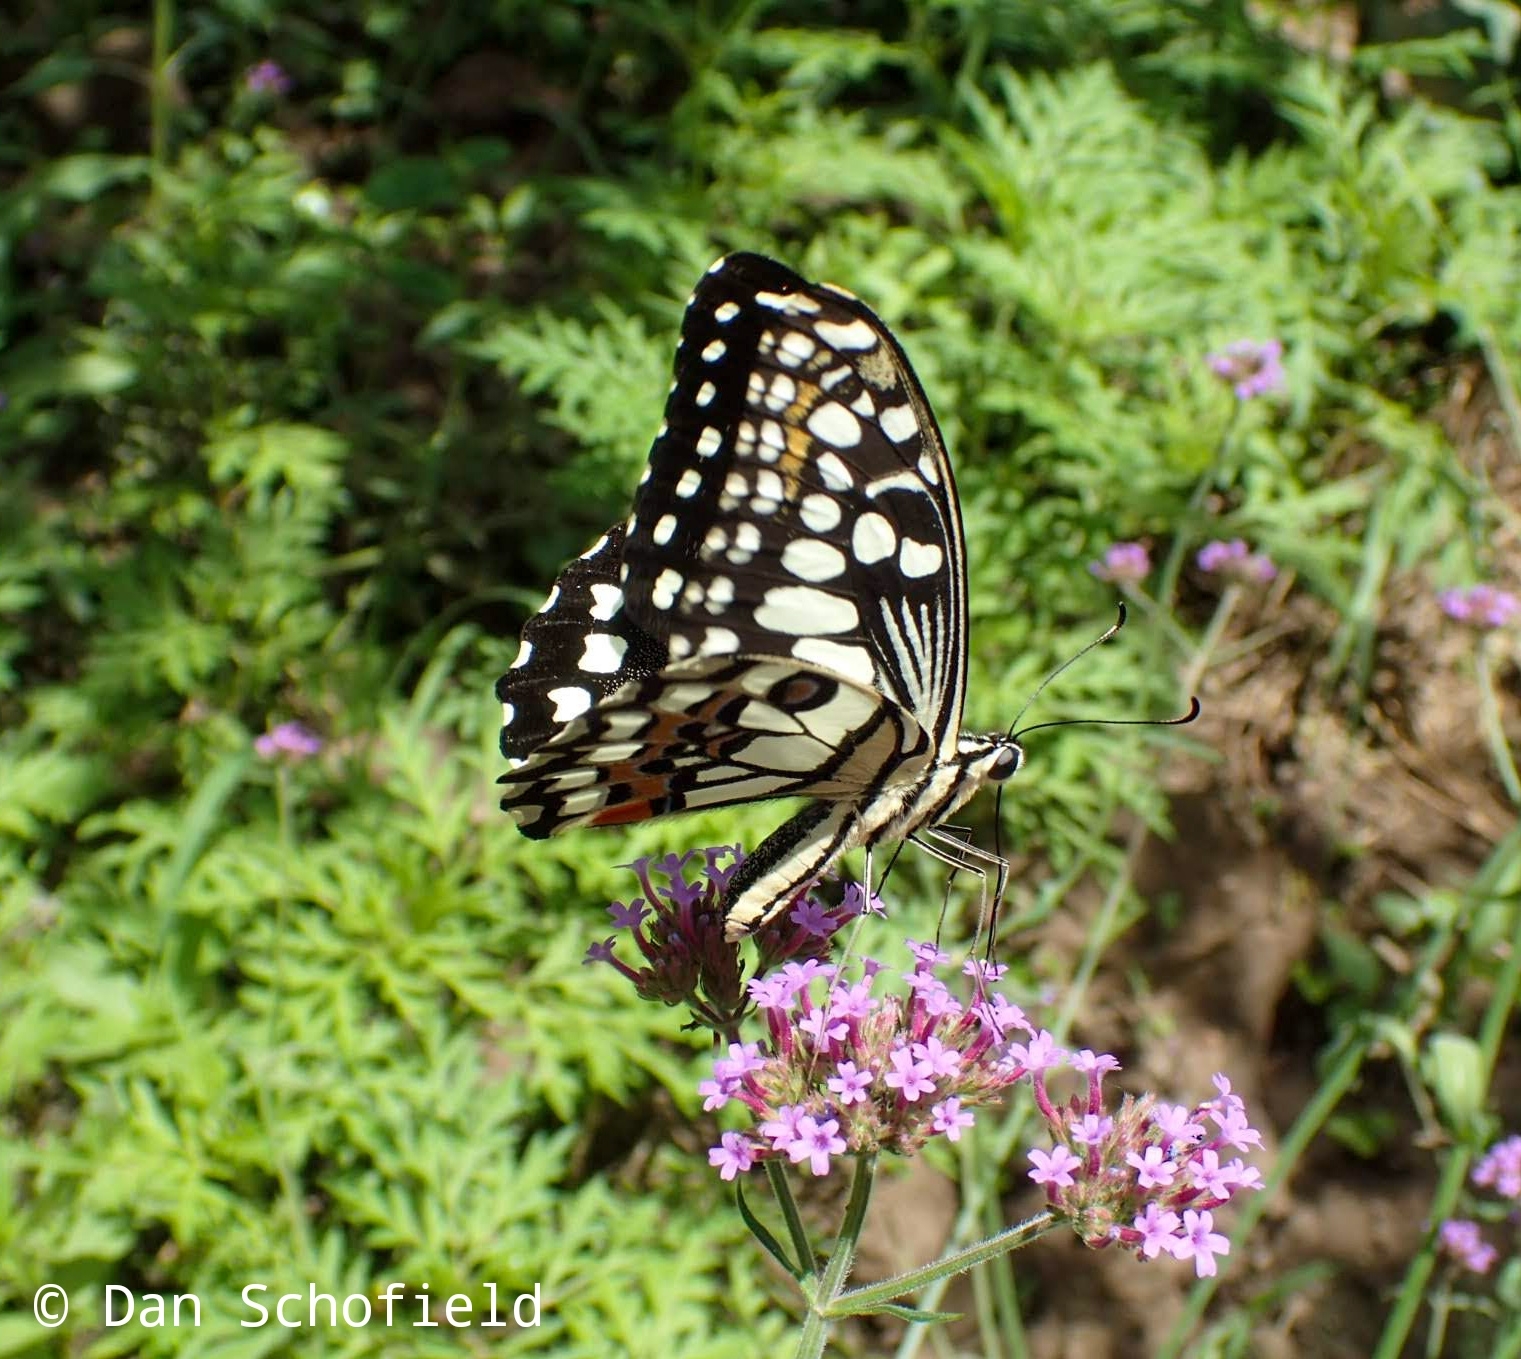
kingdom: Animalia
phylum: Arthropoda
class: Insecta
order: Lepidoptera
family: Papilionidae
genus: Papilio
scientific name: Papilio demoleus
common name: Lime butterfly
